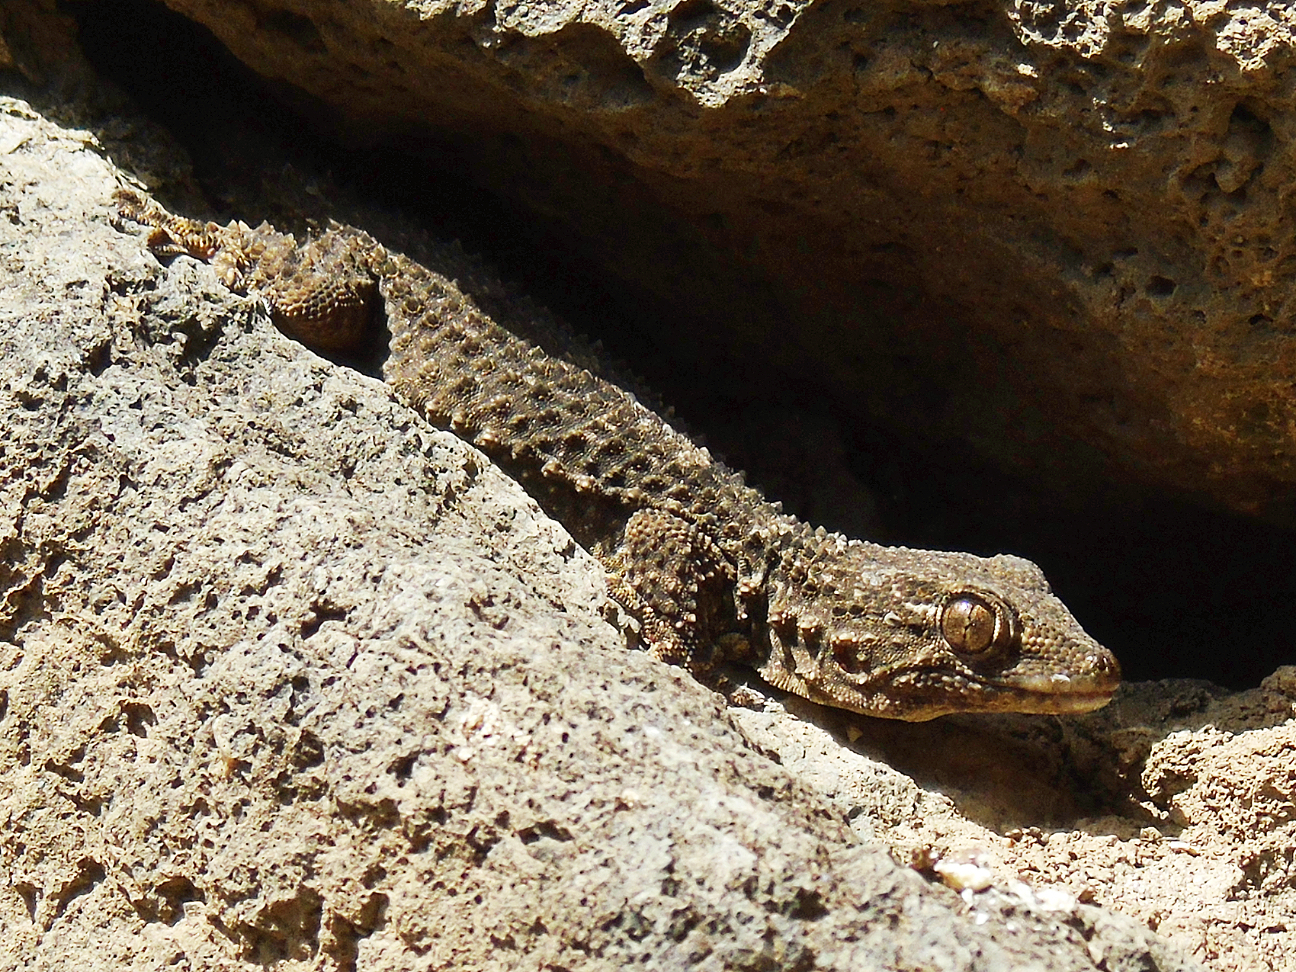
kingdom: Animalia
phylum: Chordata
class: Squamata
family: Phyllodactylidae
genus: Tarentola
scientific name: Tarentola mauritanica
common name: Moorish gecko
